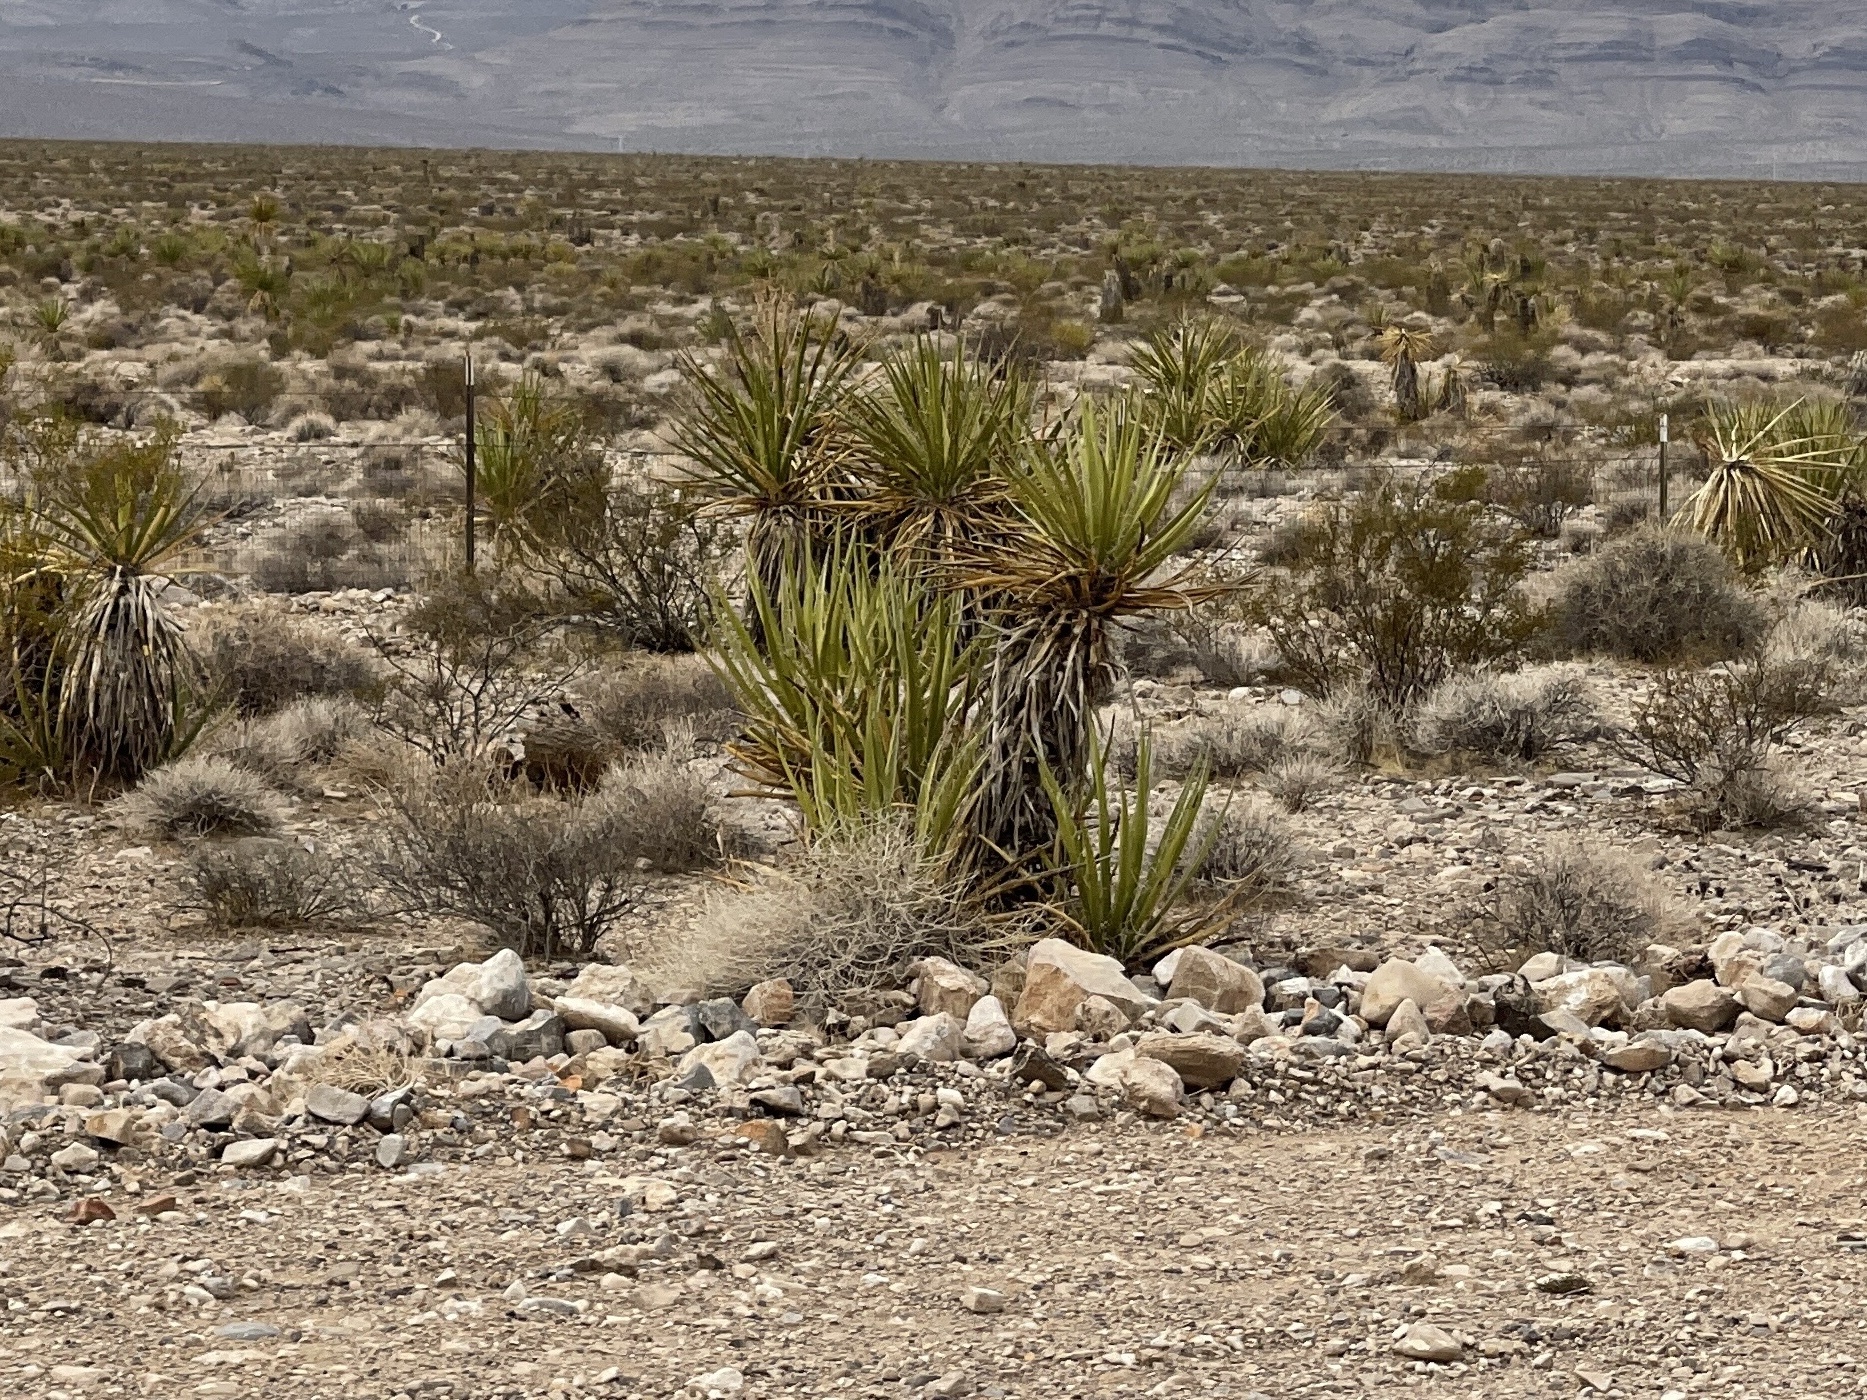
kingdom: Plantae
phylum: Tracheophyta
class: Liliopsida
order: Asparagales
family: Asparagaceae
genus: Yucca
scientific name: Yucca schidigera
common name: Mojave yucca
